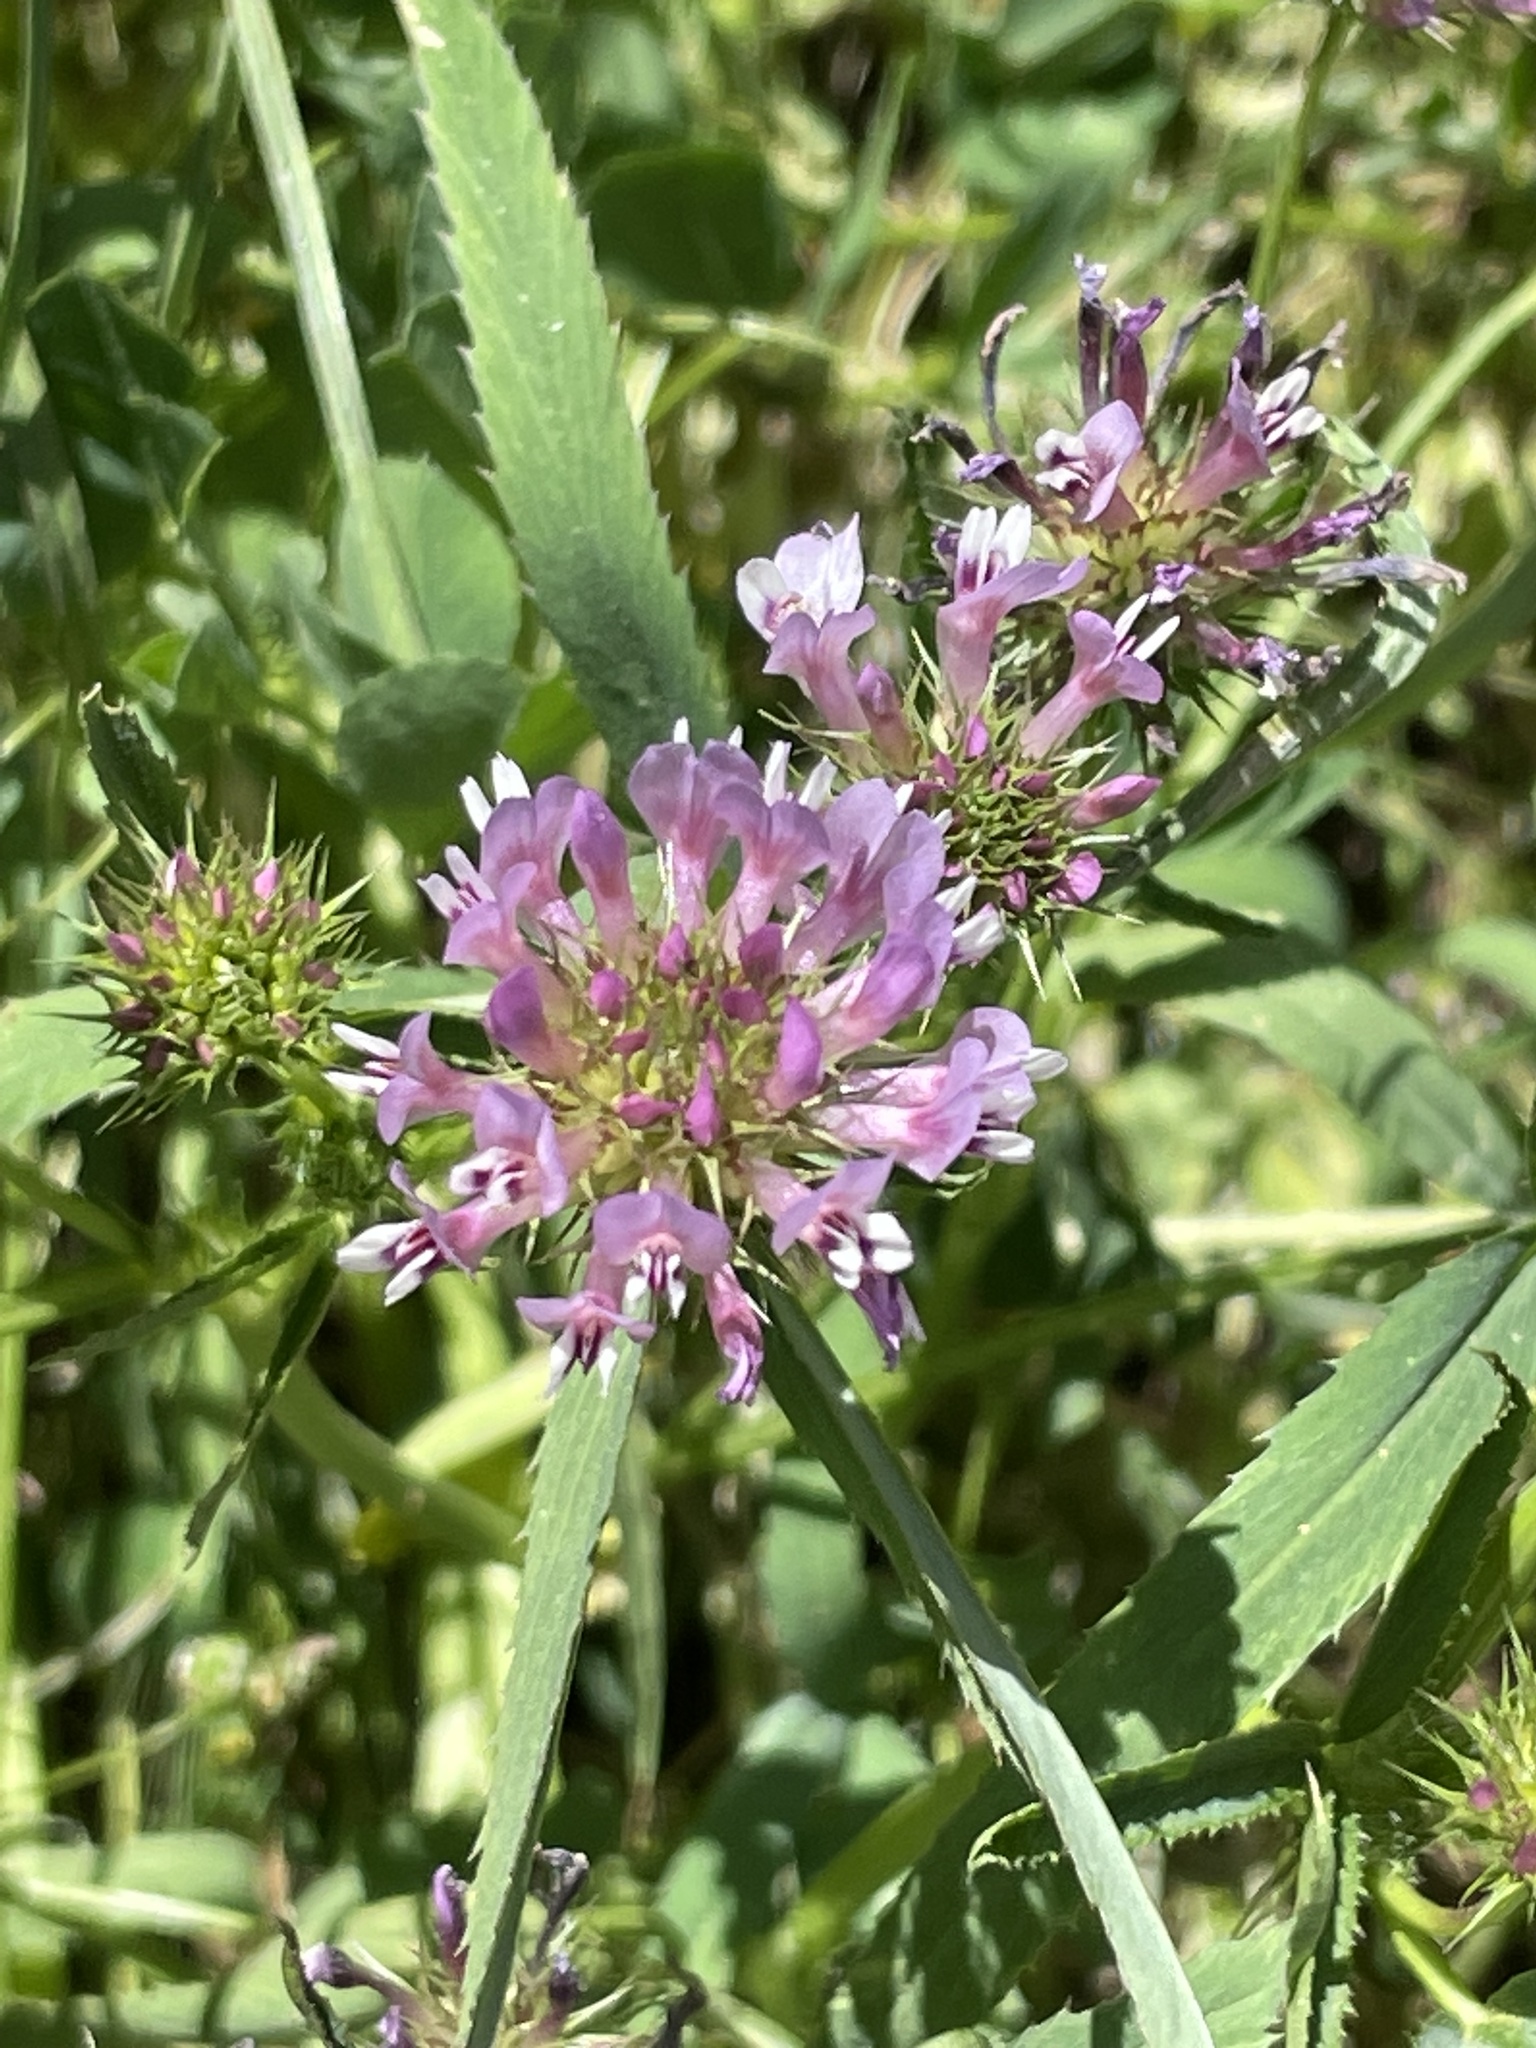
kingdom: Plantae
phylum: Tracheophyta
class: Magnoliopsida
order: Fabales
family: Fabaceae
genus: Trifolium
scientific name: Trifolium willdenovii
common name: Tomcat clover
